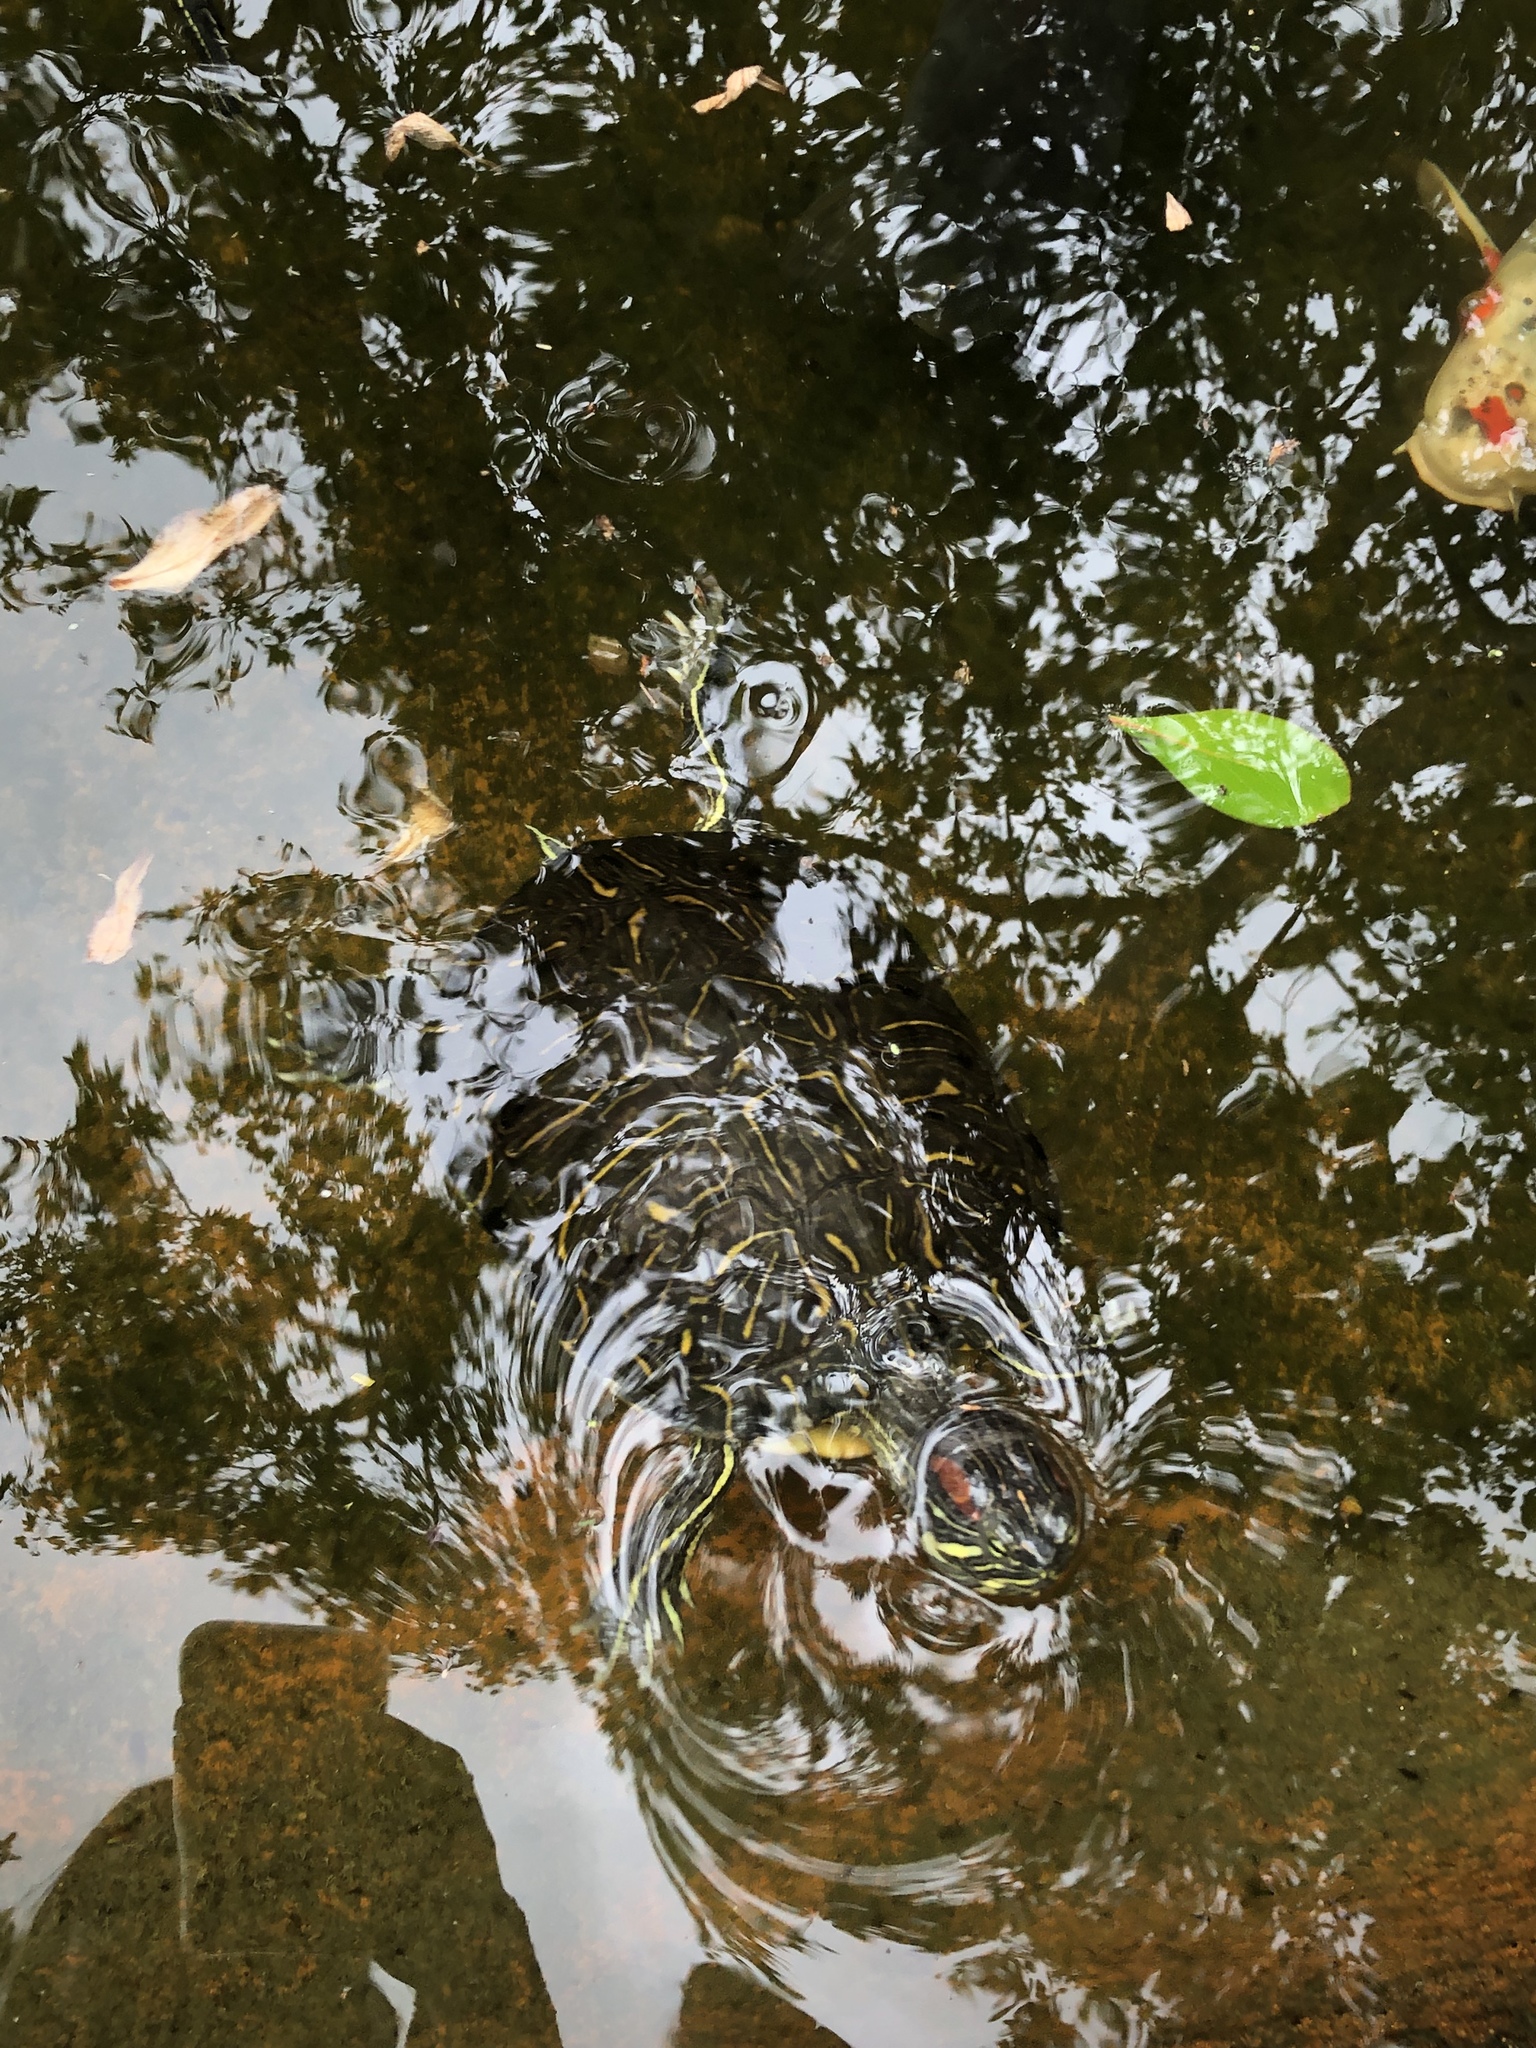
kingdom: Animalia
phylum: Chordata
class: Testudines
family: Emydidae
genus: Trachemys
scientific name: Trachemys scripta
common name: Slider
